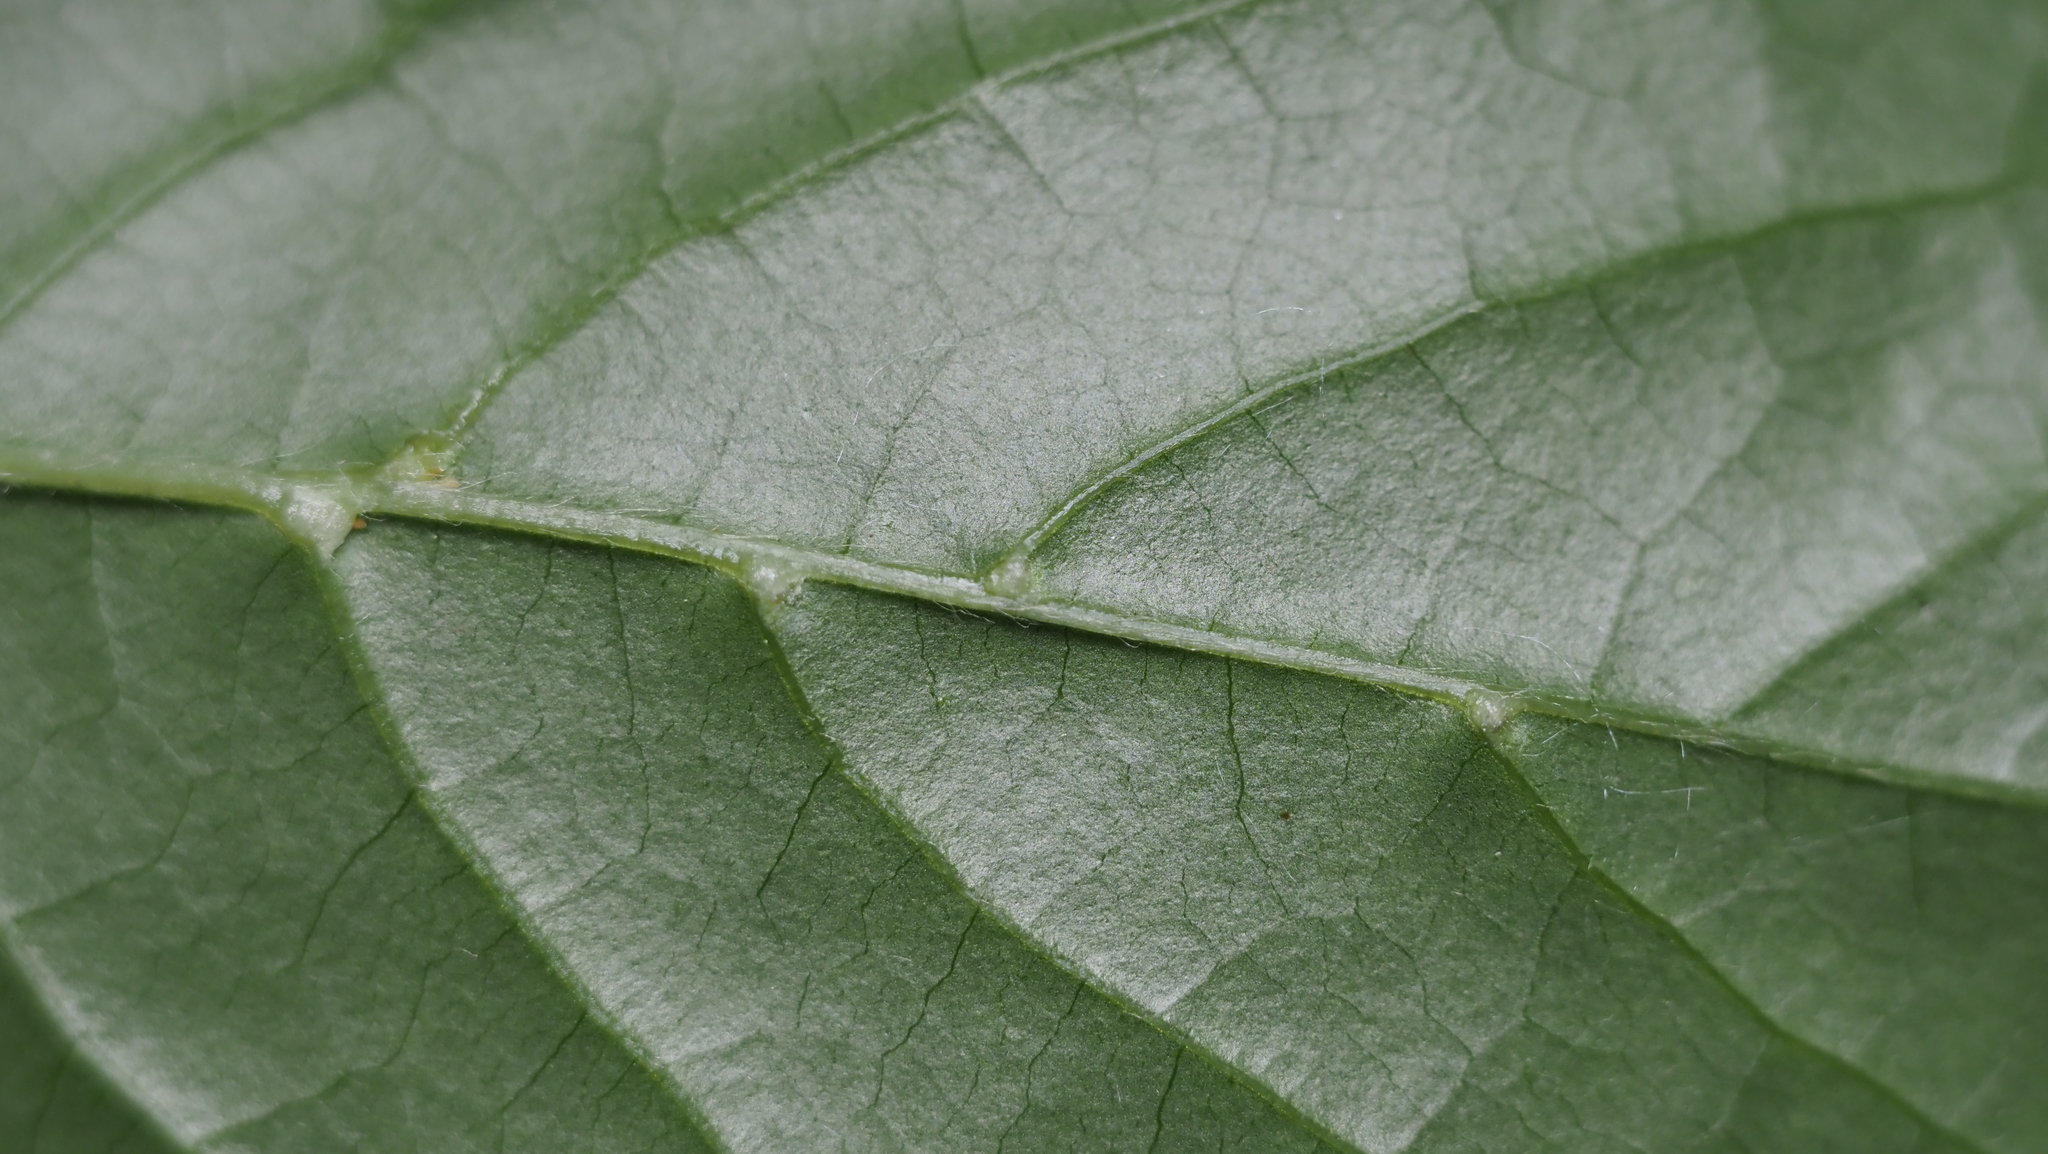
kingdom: Animalia
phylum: Arthropoda
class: Arachnida
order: Trombidiformes
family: Eriophyidae
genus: Cenalox
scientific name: Cenalox
